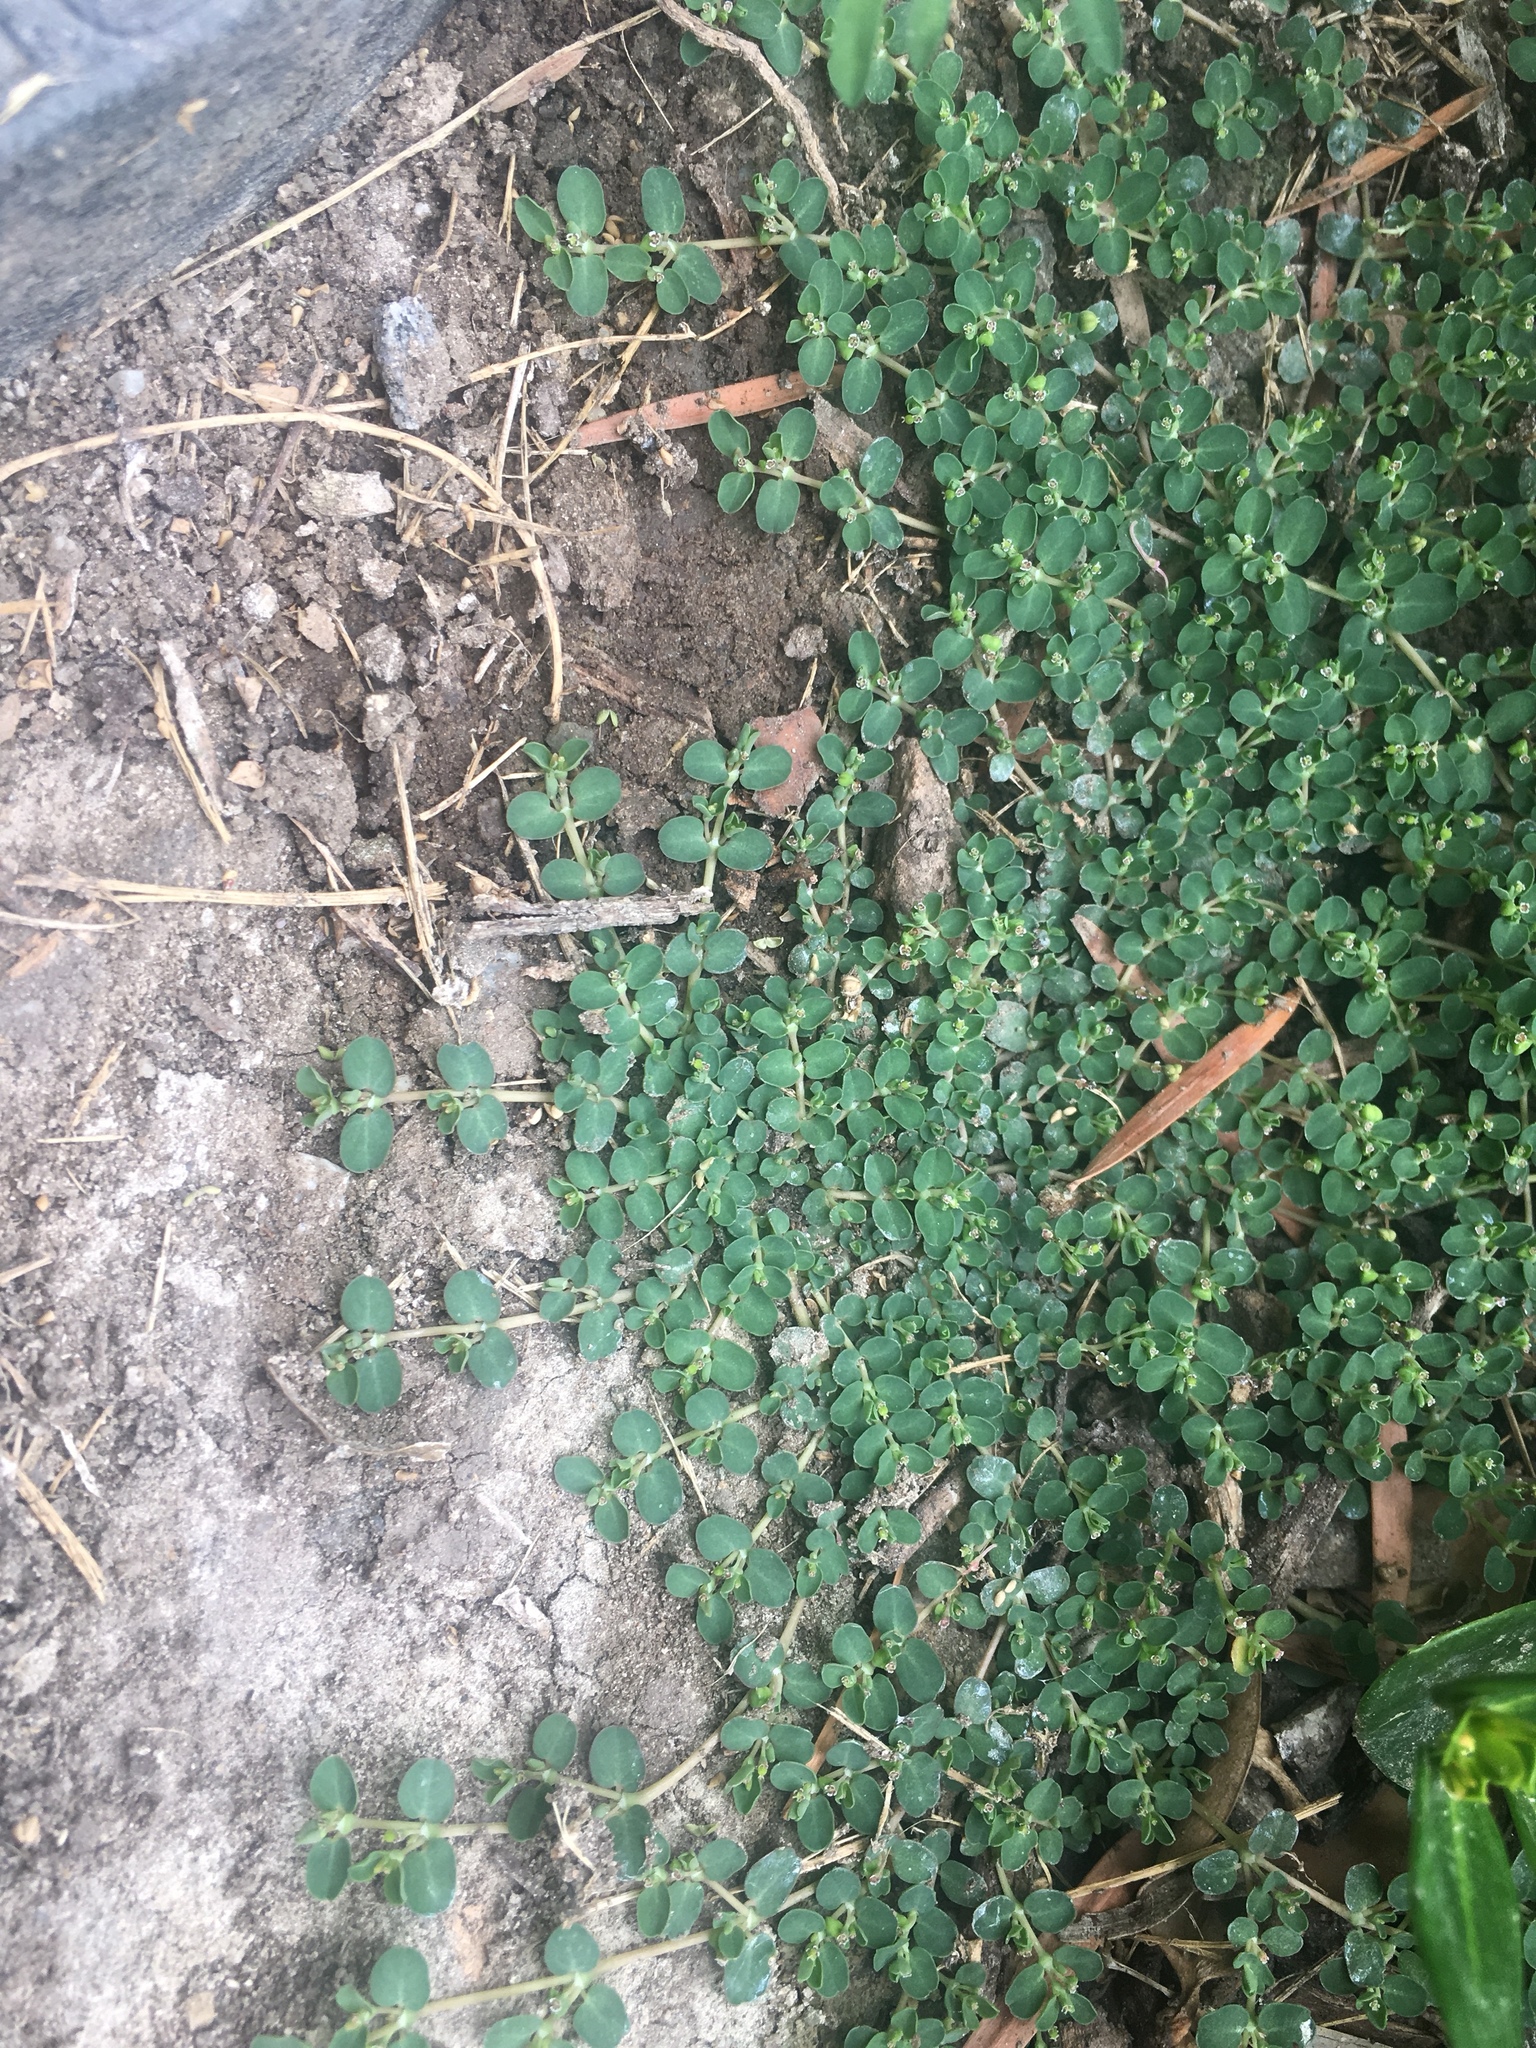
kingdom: Plantae
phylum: Tracheophyta
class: Magnoliopsida
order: Malpighiales
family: Euphorbiaceae
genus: Euphorbia
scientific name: Euphorbia serpens
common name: Matted sandmat
